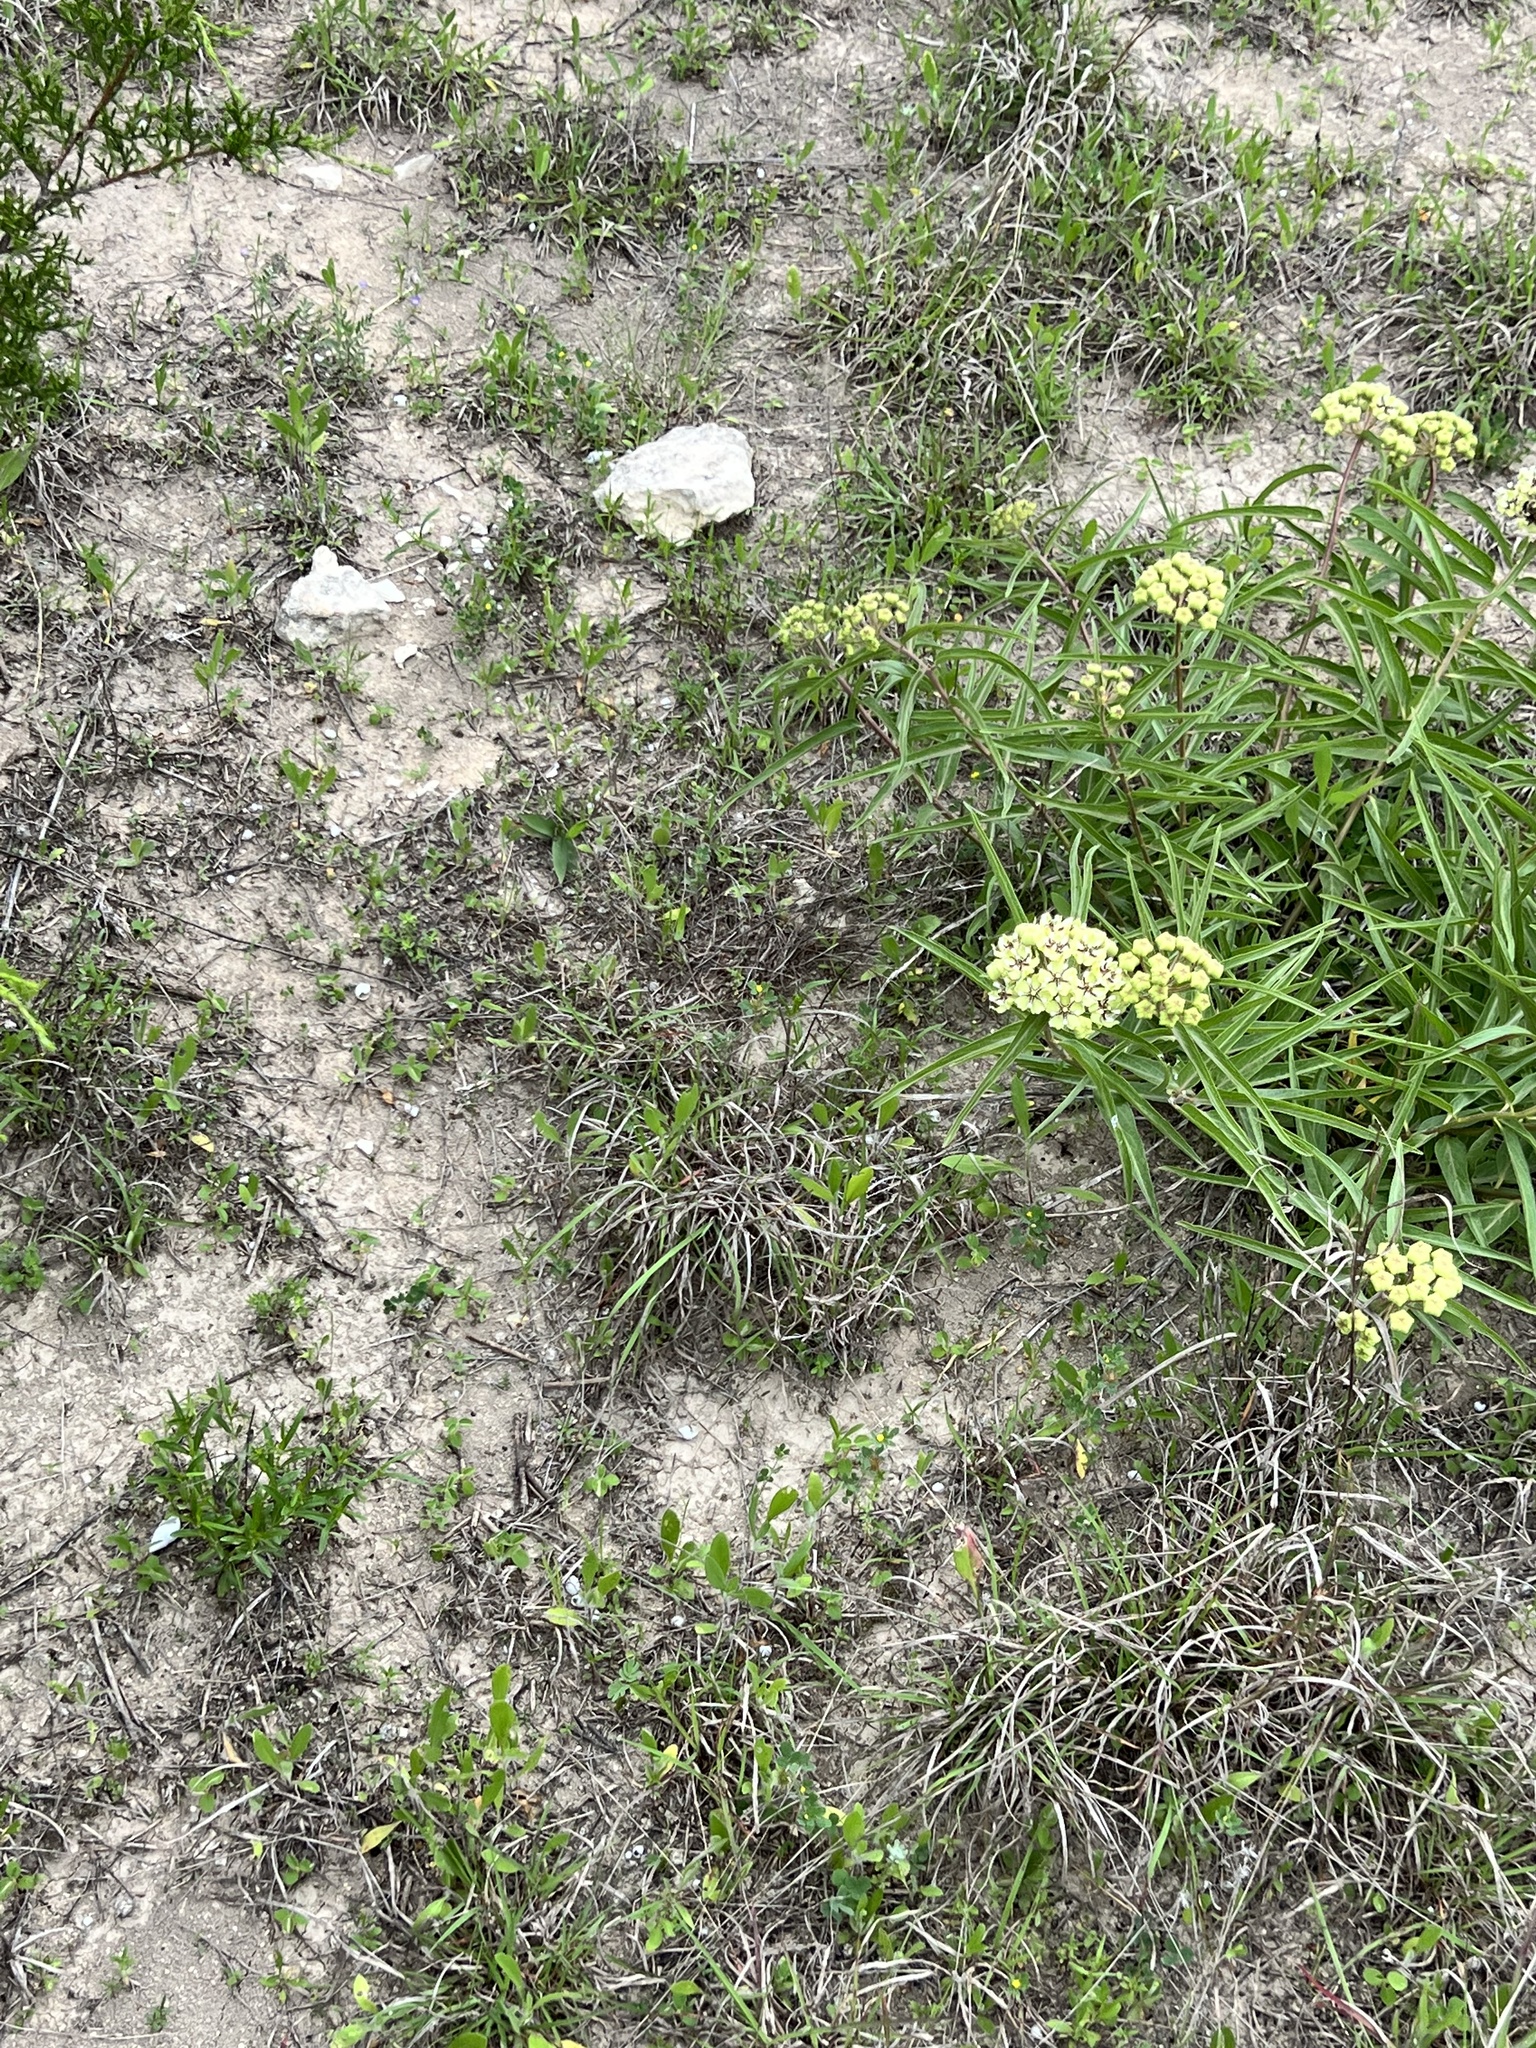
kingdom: Plantae
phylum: Tracheophyta
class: Magnoliopsida
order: Gentianales
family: Apocynaceae
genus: Asclepias
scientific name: Asclepias asperula
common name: Antelope horns
